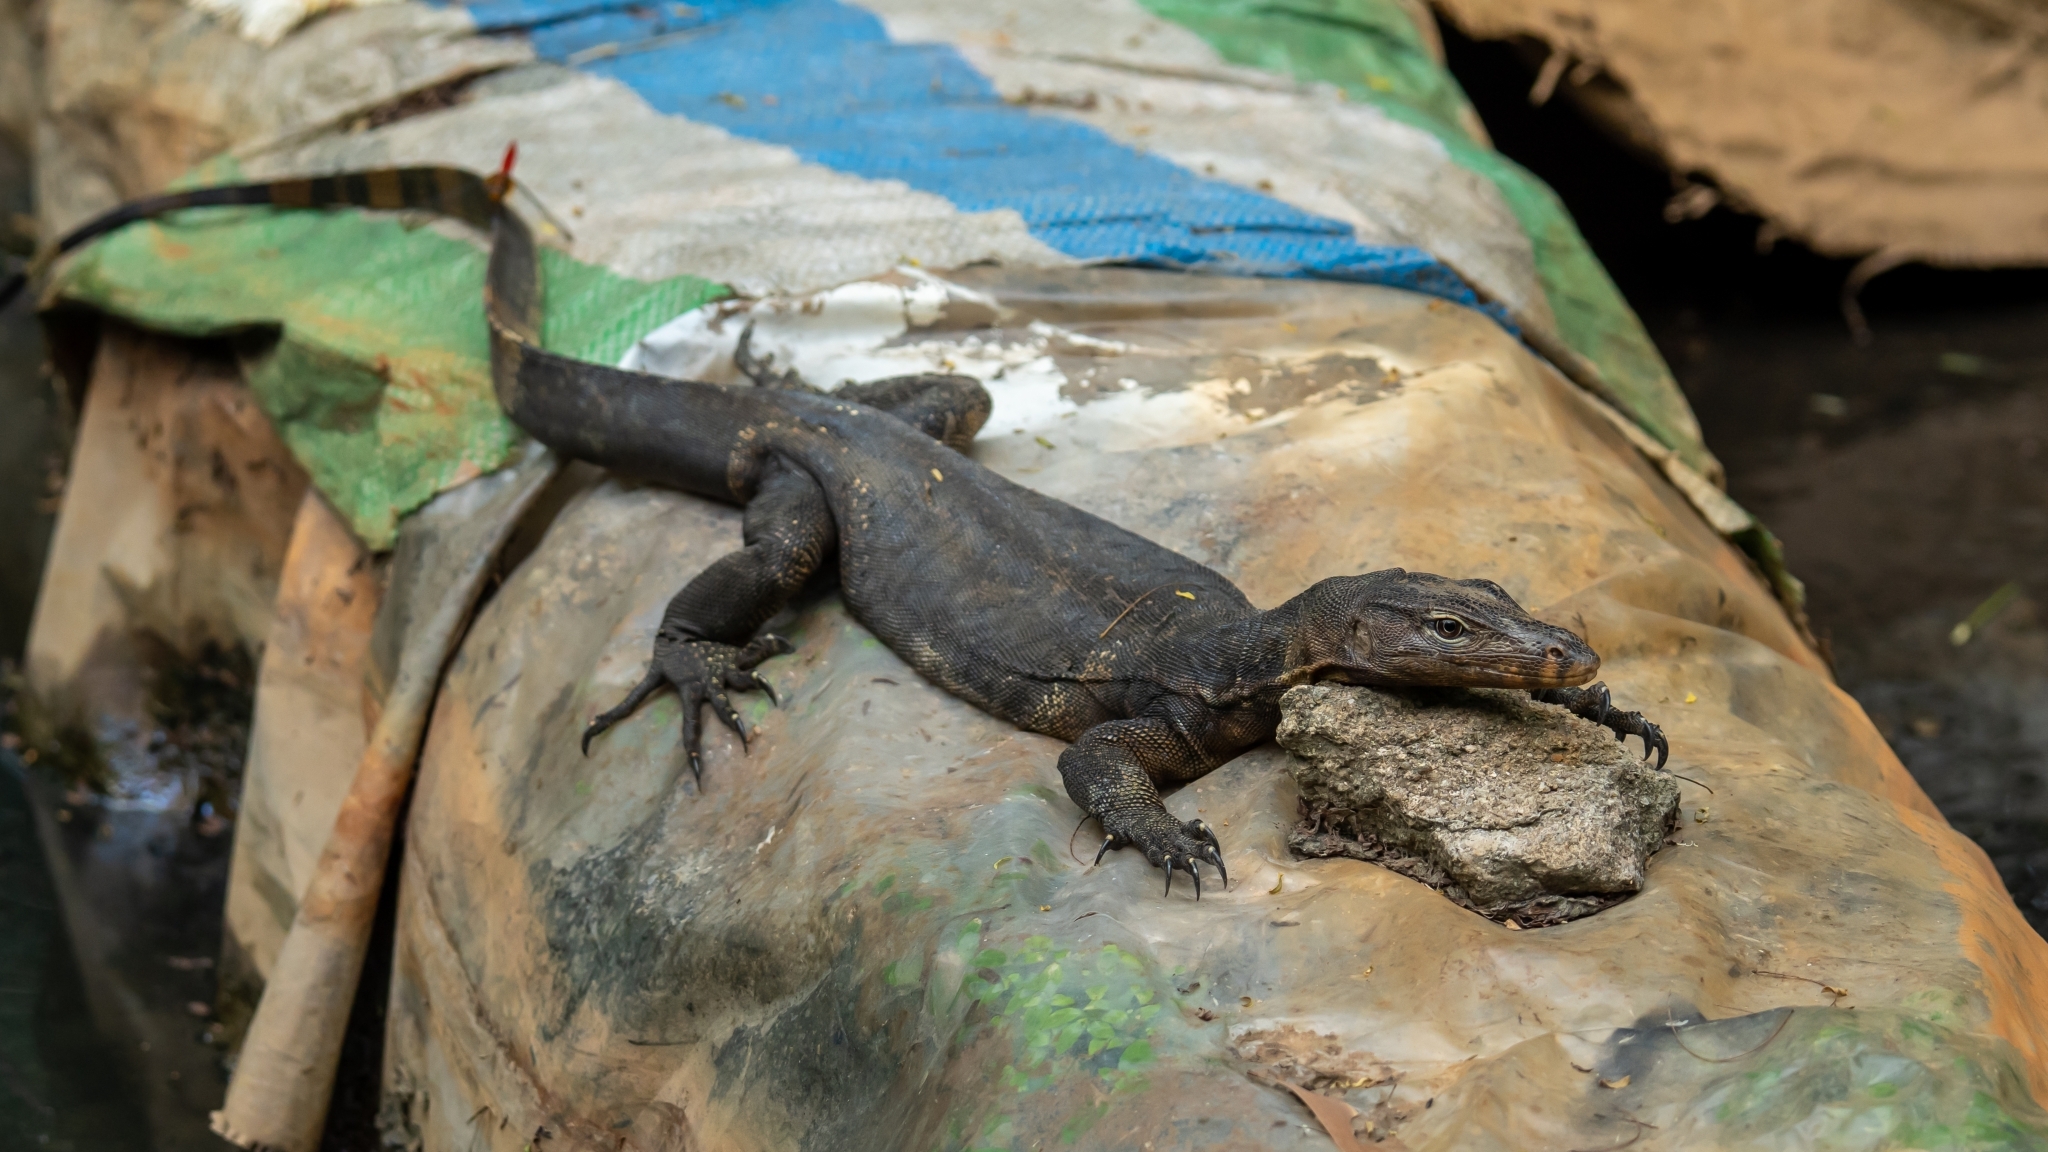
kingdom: Animalia
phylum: Chordata
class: Squamata
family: Varanidae
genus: Varanus
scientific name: Varanus salvator
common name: Common water monitor
